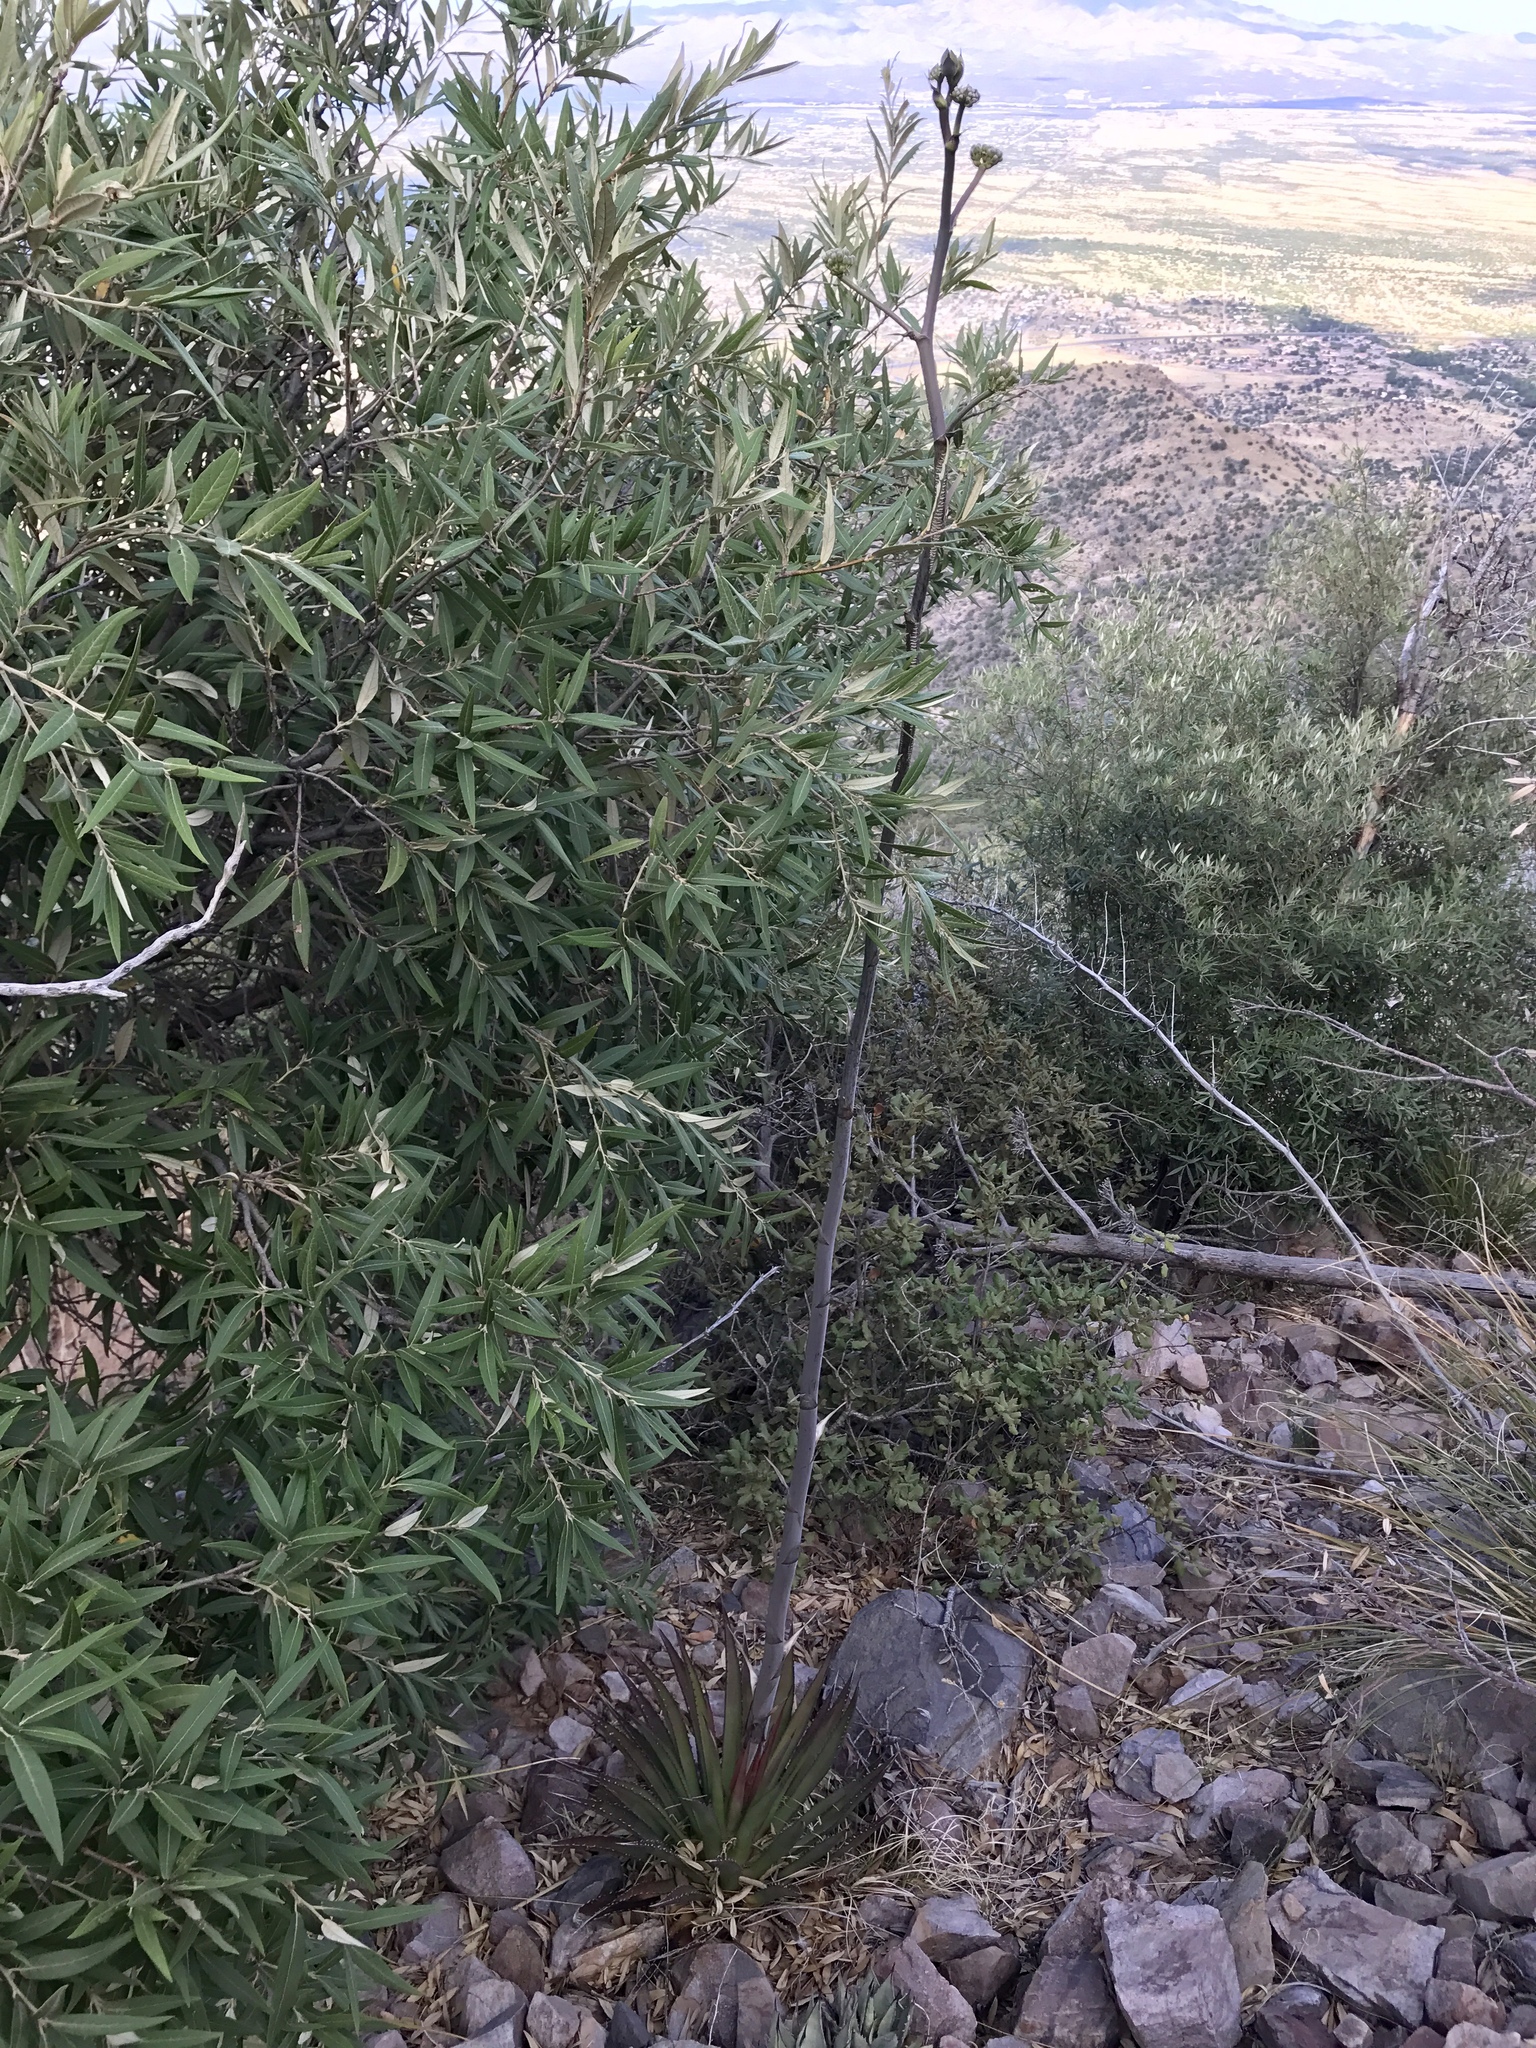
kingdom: Plantae
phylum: Tracheophyta
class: Liliopsida
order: Asparagales
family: Asparagaceae
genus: Agave
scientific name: Agave palmeri
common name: Palmer agave
